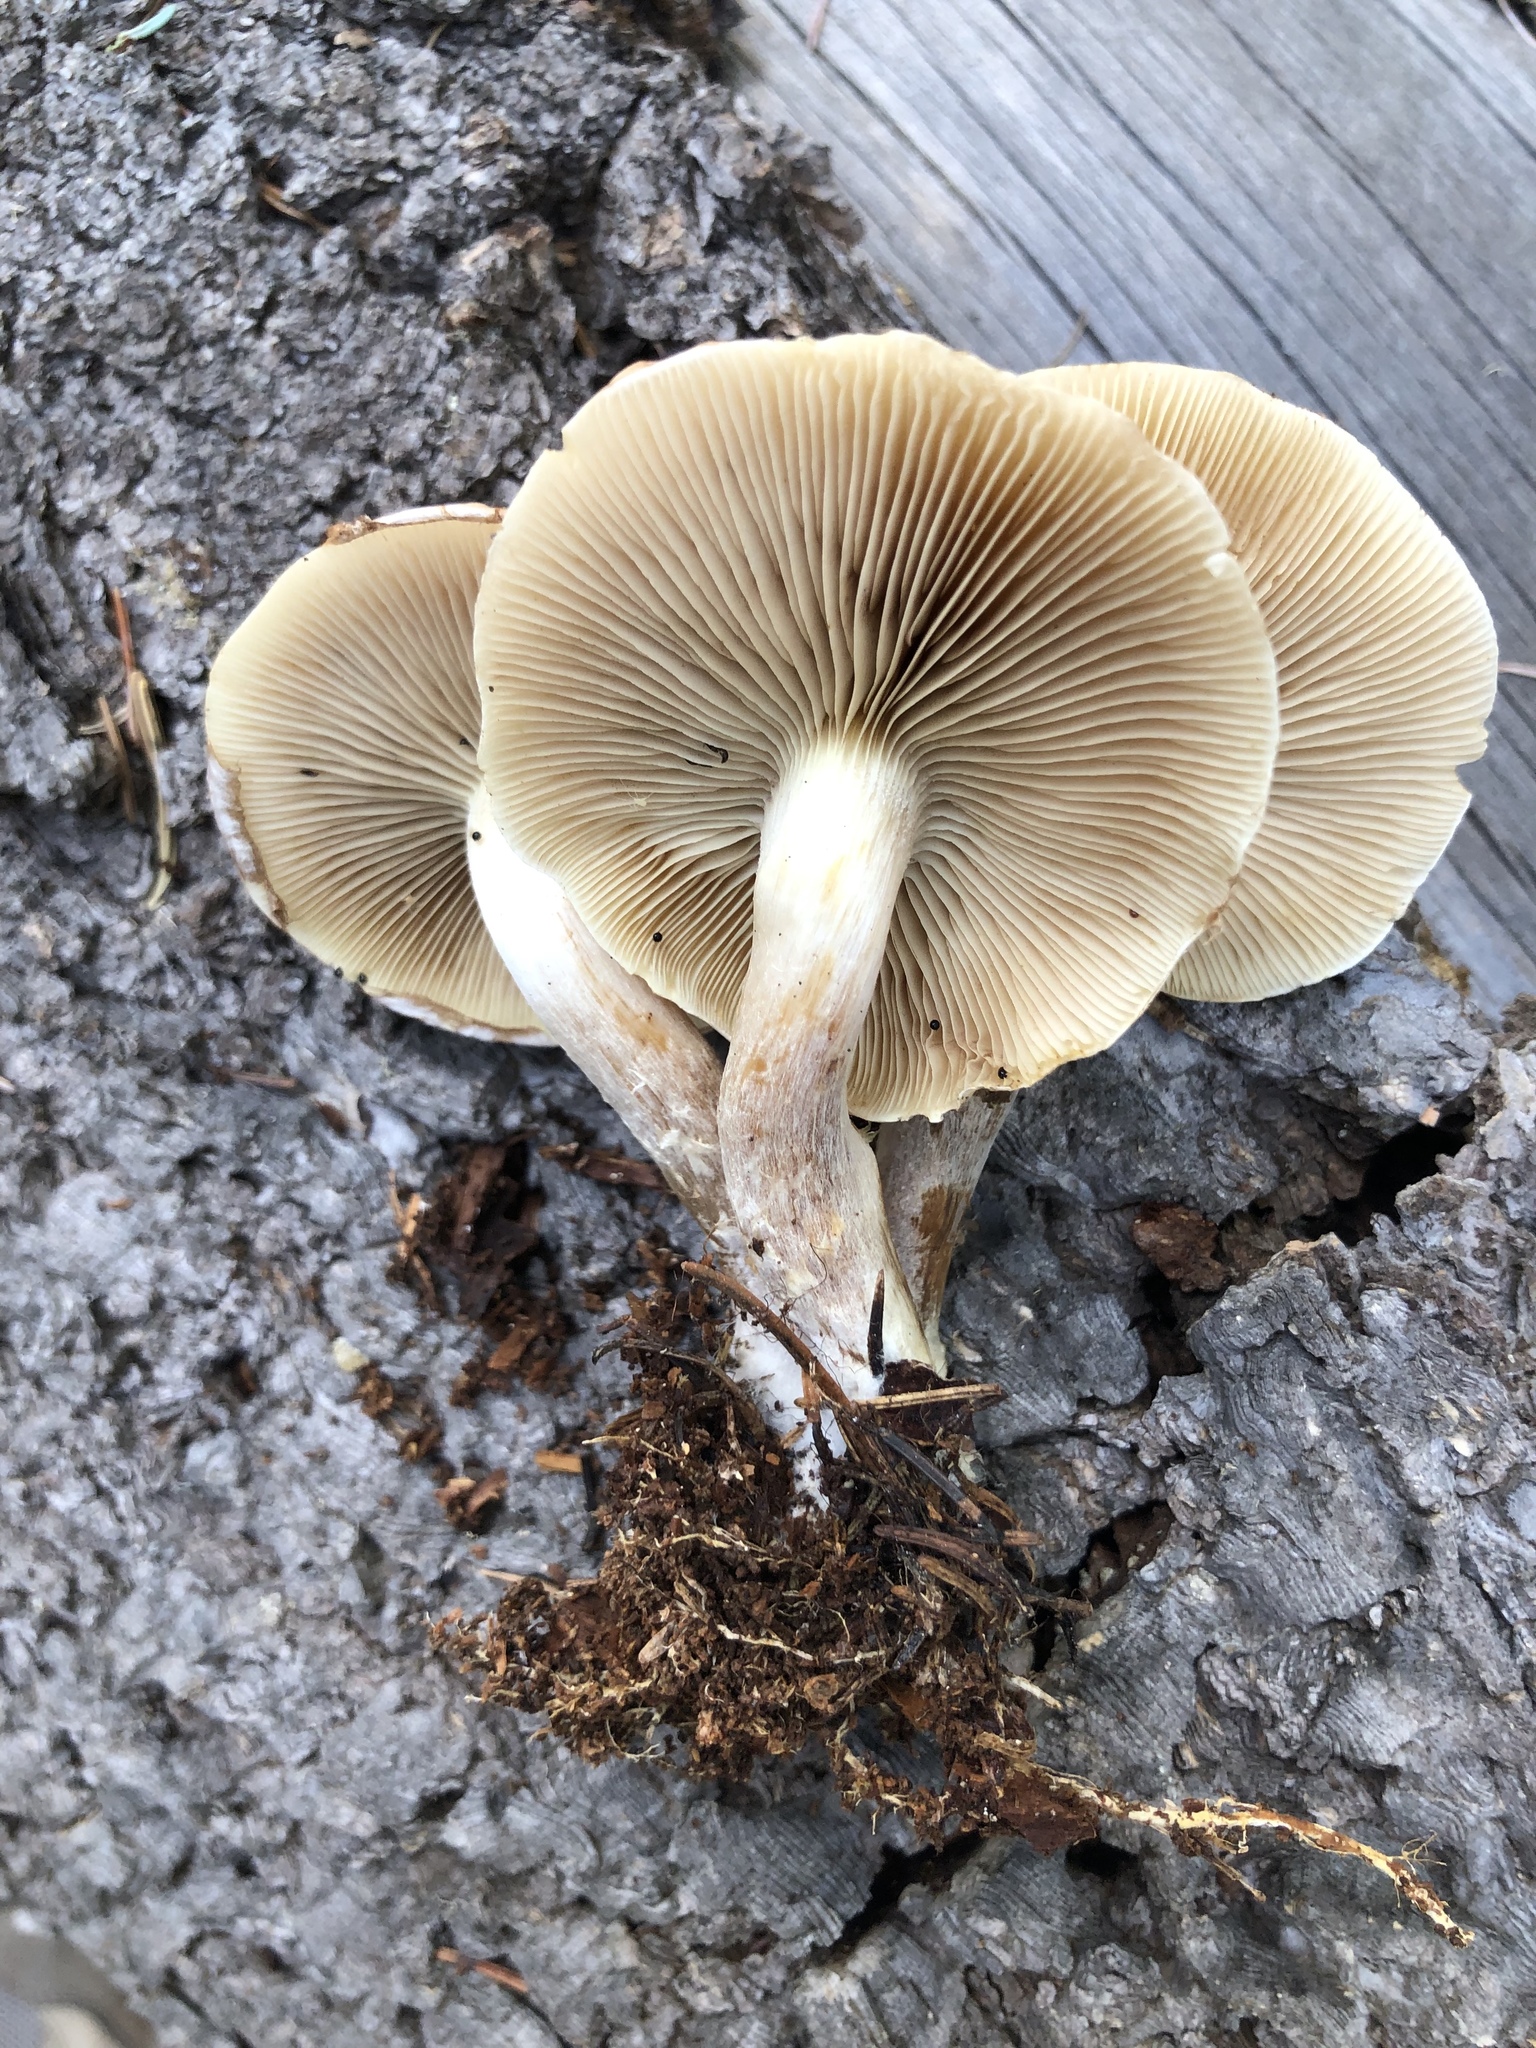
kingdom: Fungi
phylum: Basidiomycota
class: Agaricomycetes
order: Agaricales
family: Strophariaceae
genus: Pholiota
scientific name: Pholiota lenta
